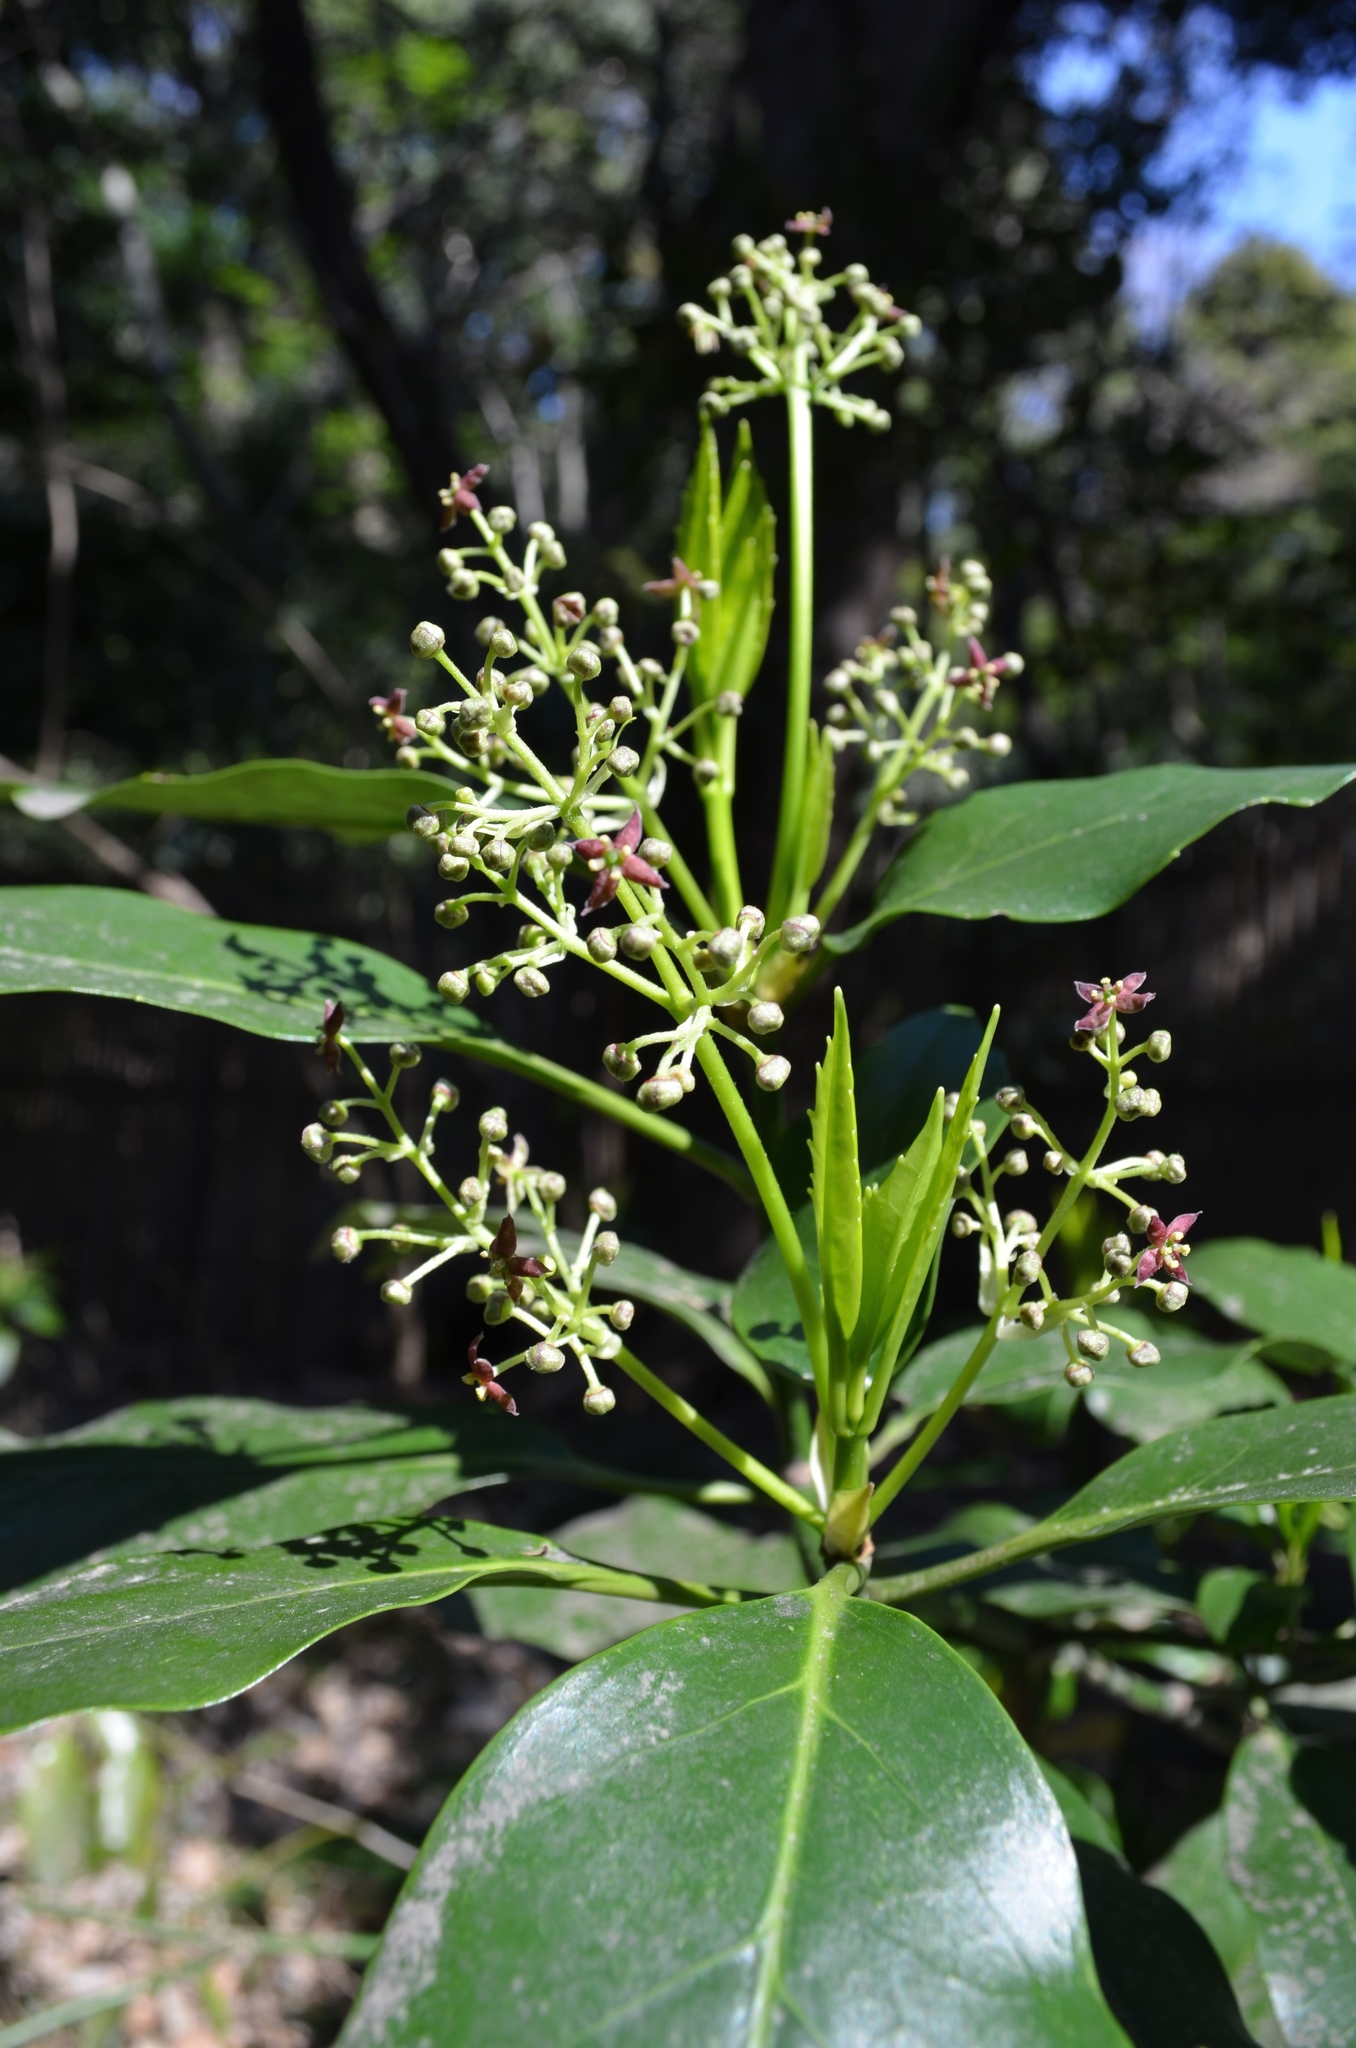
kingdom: Plantae
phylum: Tracheophyta
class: Magnoliopsida
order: Garryales
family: Garryaceae
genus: Aucuba
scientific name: Aucuba japonica
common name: Spotted-laurel
